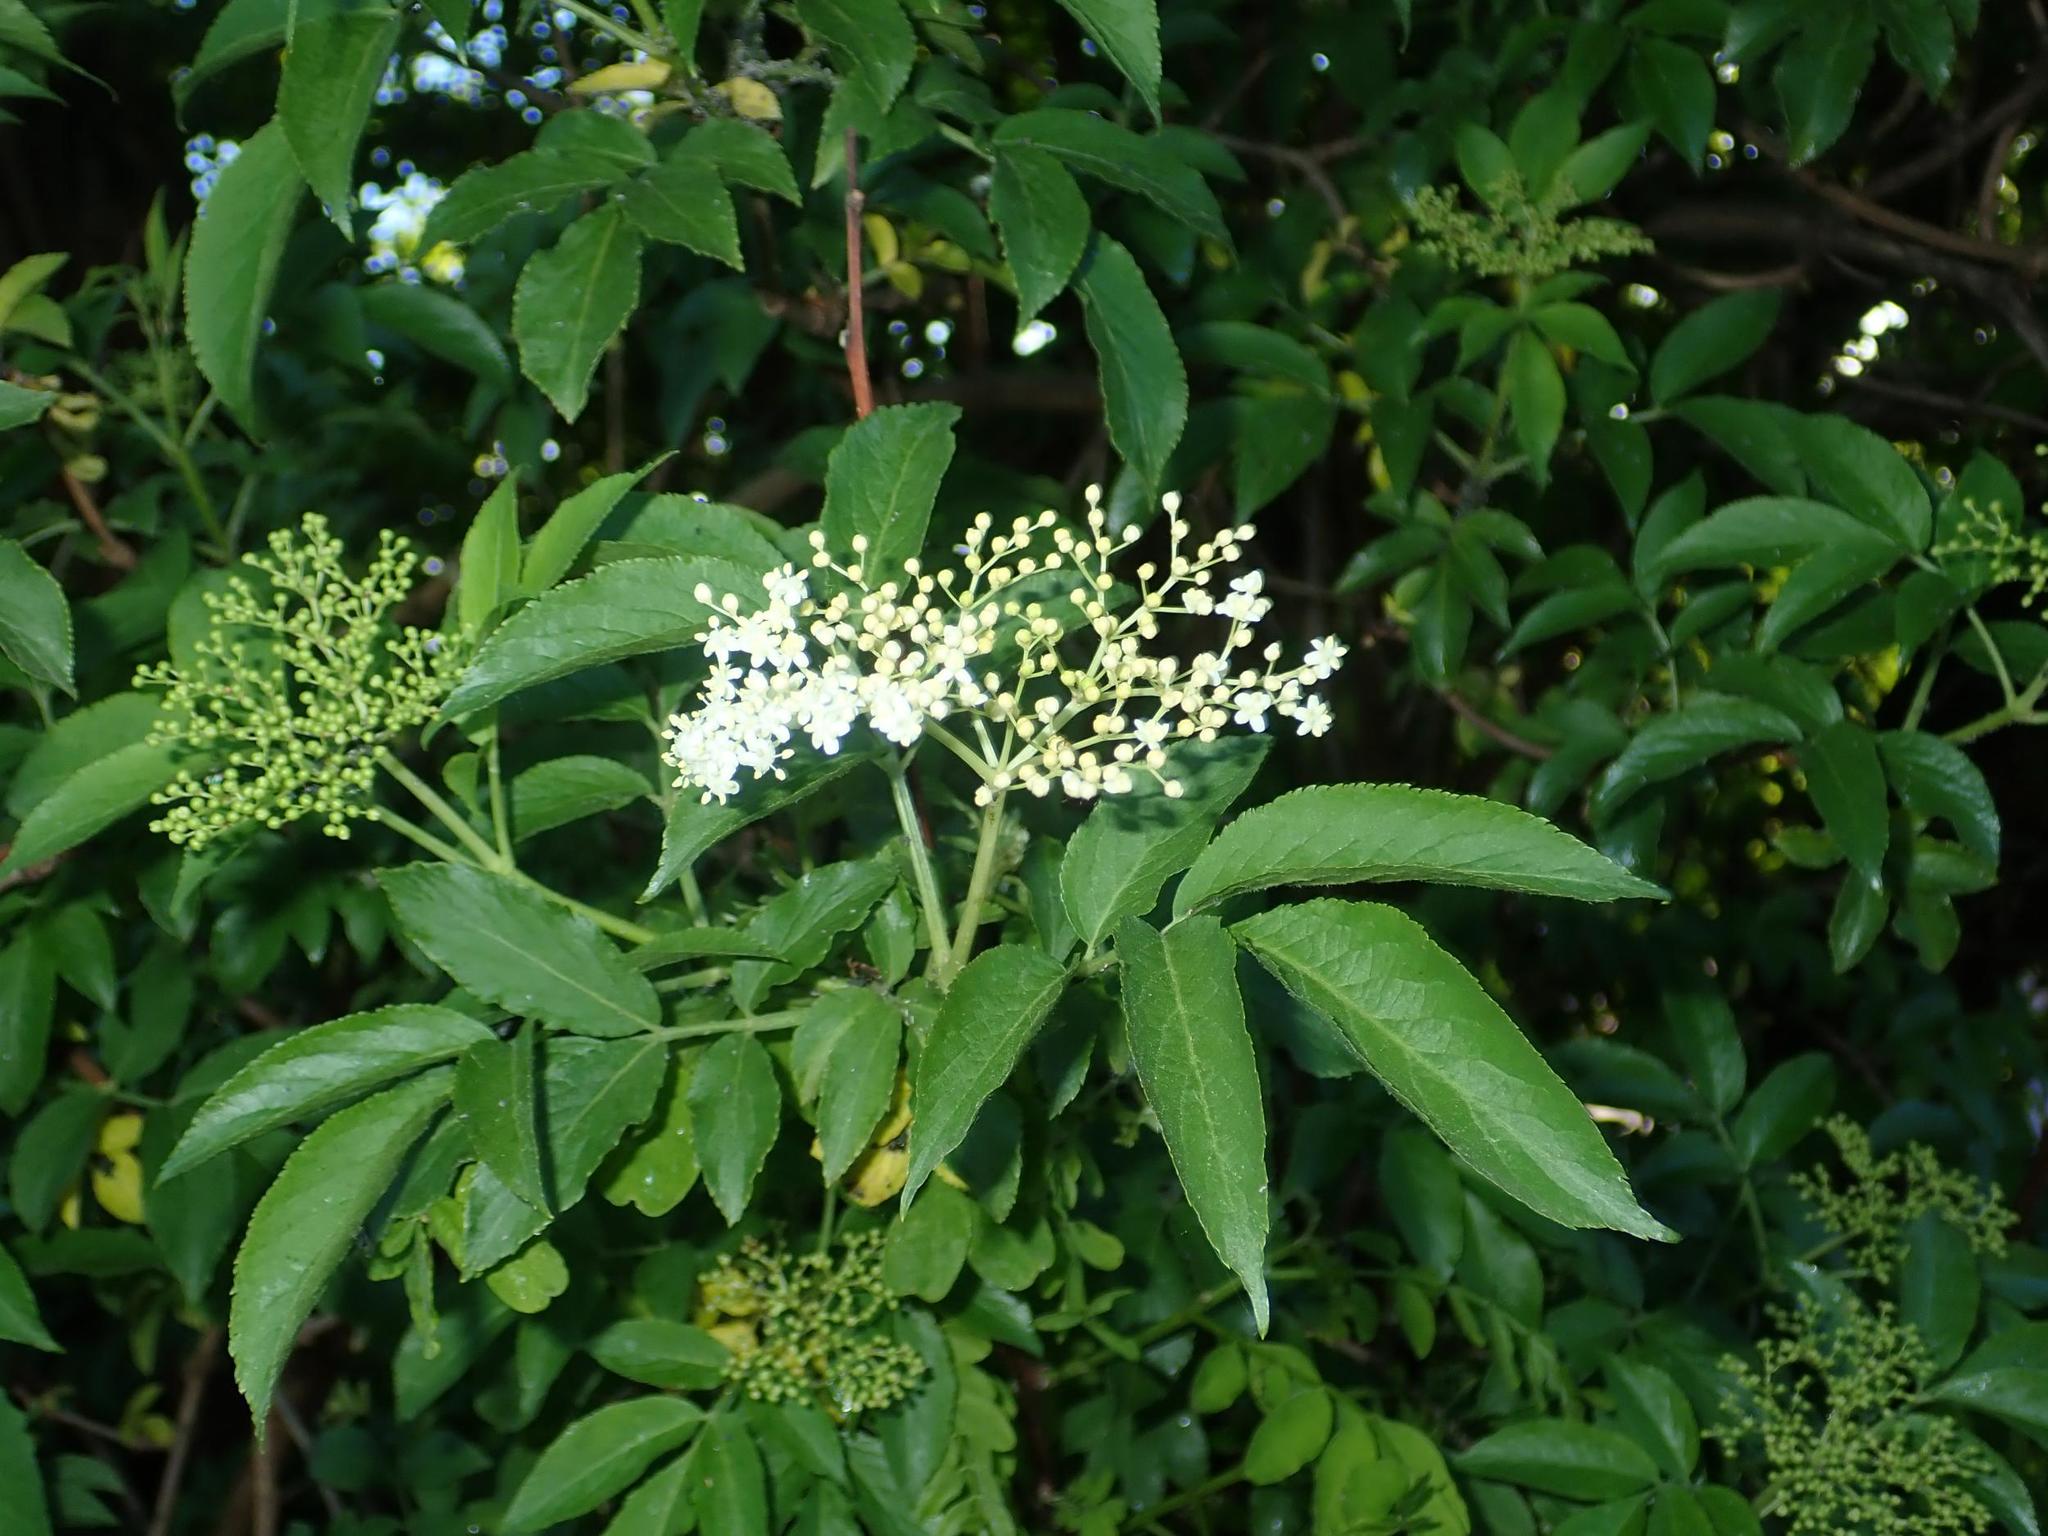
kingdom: Plantae
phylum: Tracheophyta
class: Magnoliopsida
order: Dipsacales
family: Viburnaceae
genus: Sambucus
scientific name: Sambucus nigra
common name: Elder
